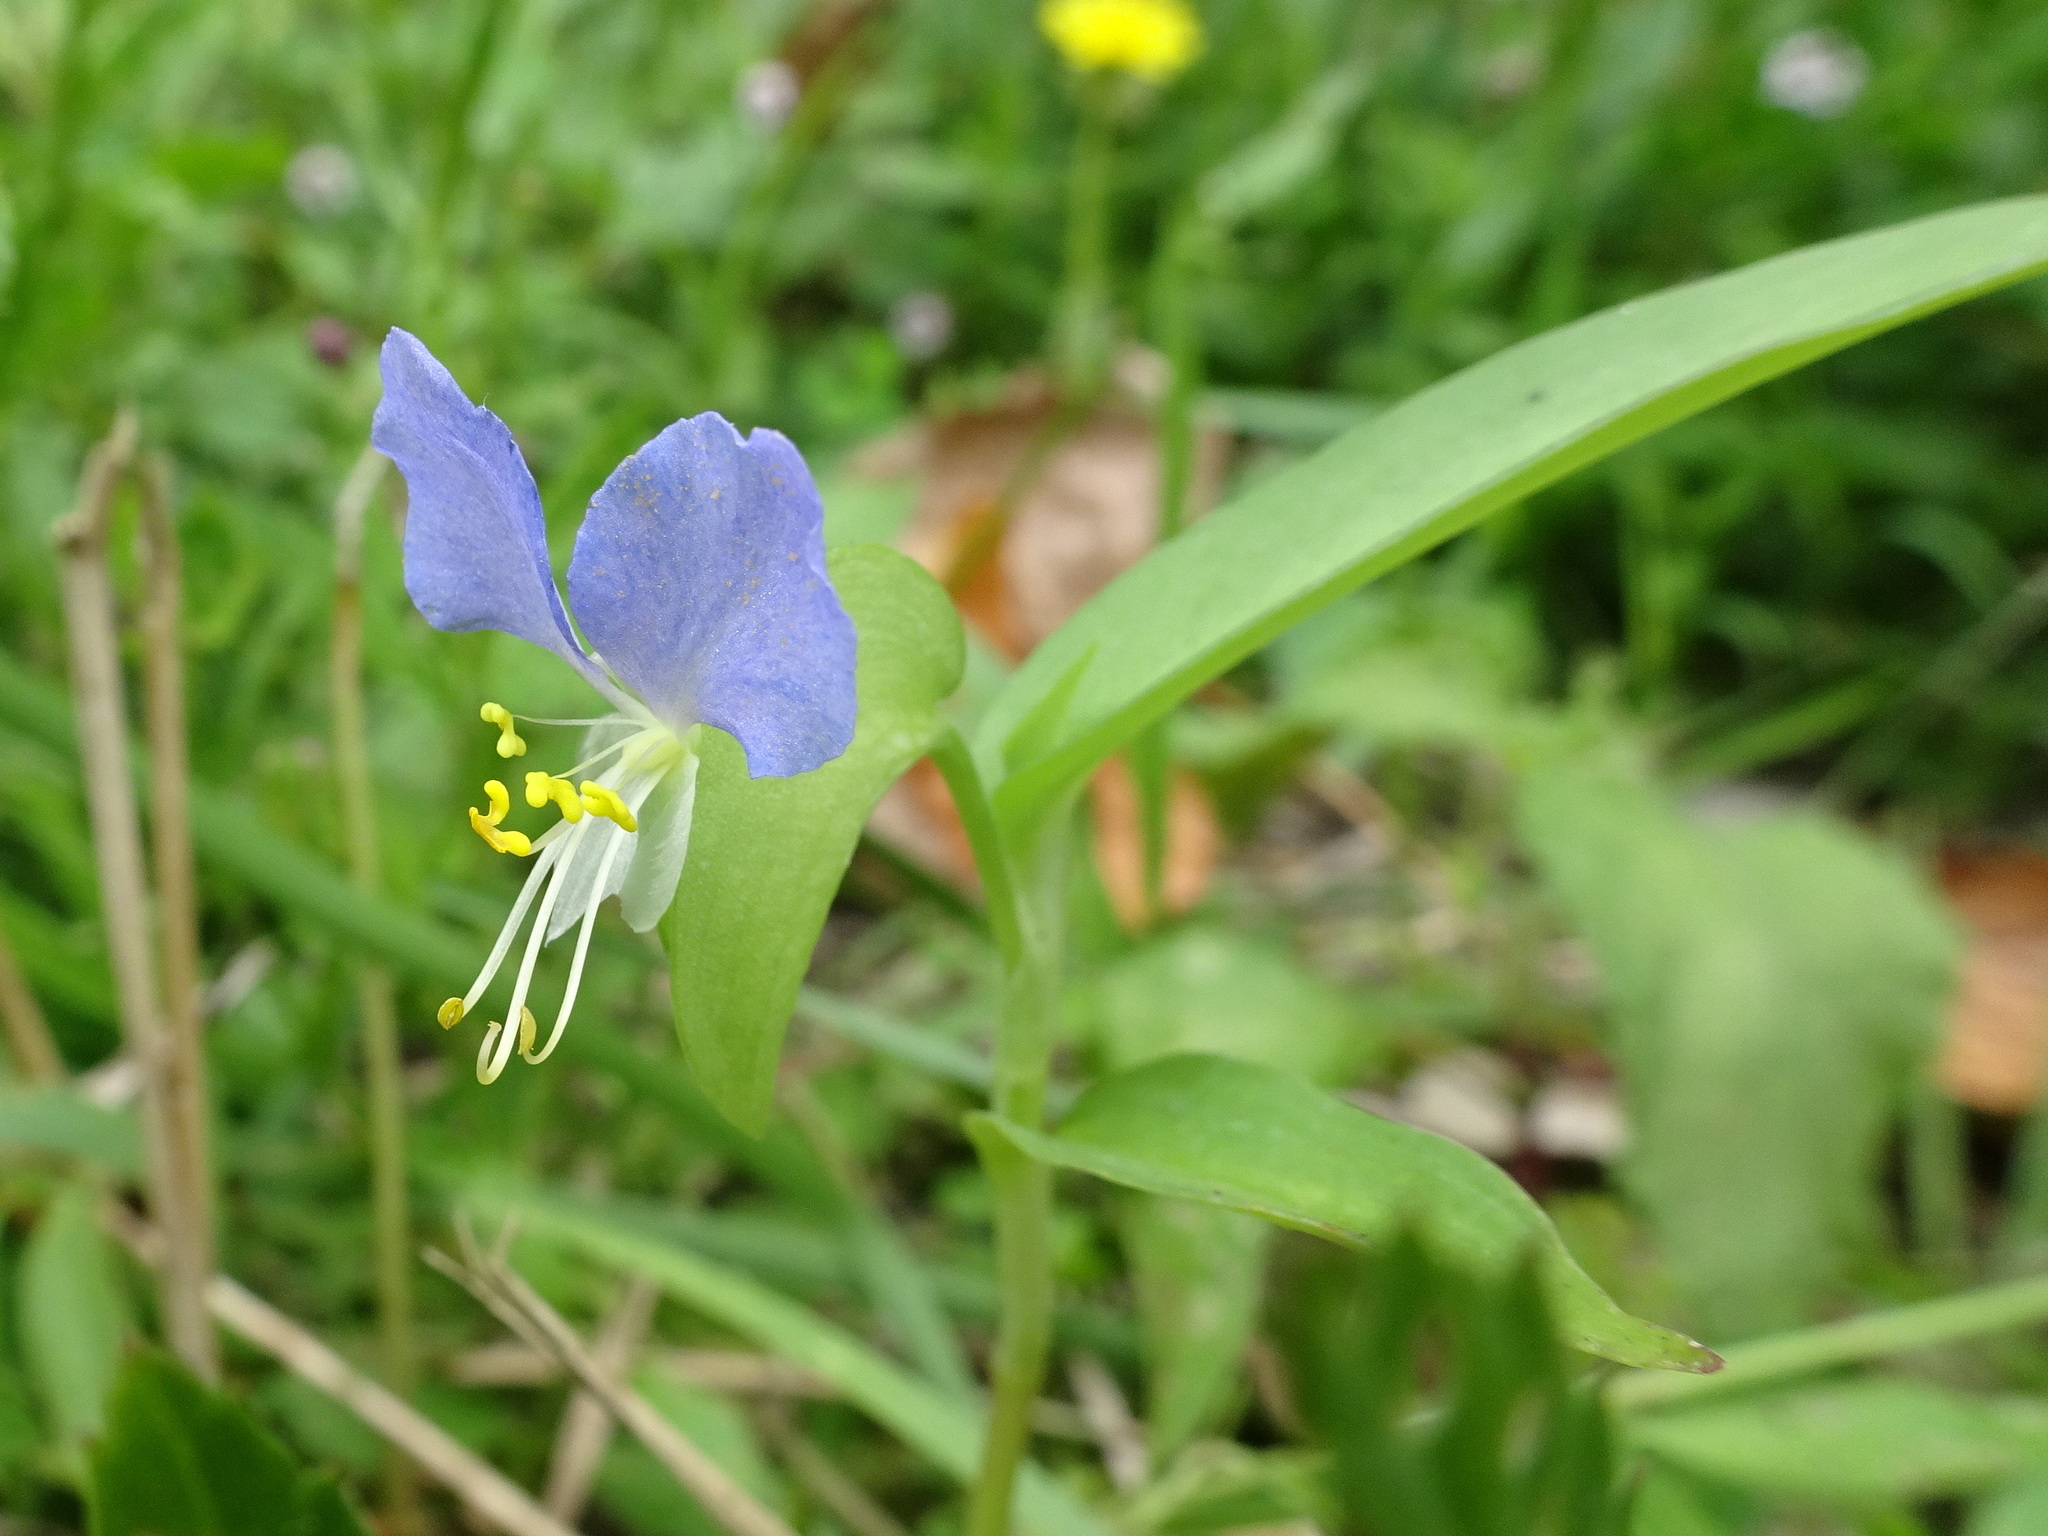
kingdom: Plantae
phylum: Tracheophyta
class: Liliopsida
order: Commelinales
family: Commelinaceae
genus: Commelina
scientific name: Commelina erecta
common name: Blousel blommetjie
